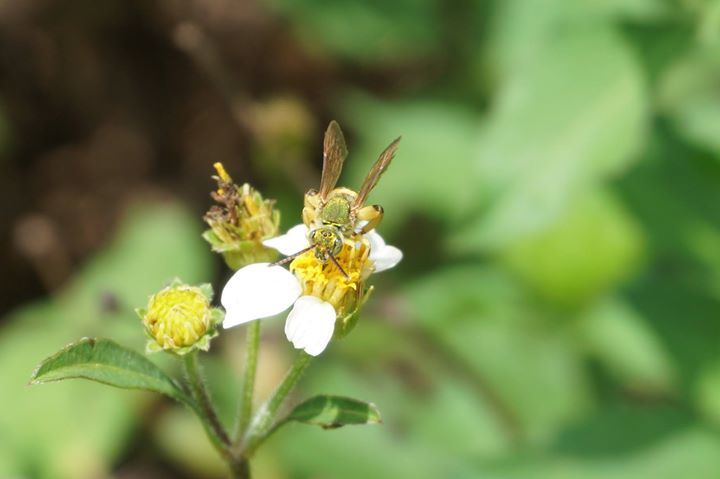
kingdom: Animalia
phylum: Arthropoda
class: Insecta
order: Hymenoptera
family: Halictidae
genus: Agapostemon
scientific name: Agapostemon splendens
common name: Brown-winged striped sweat bee
